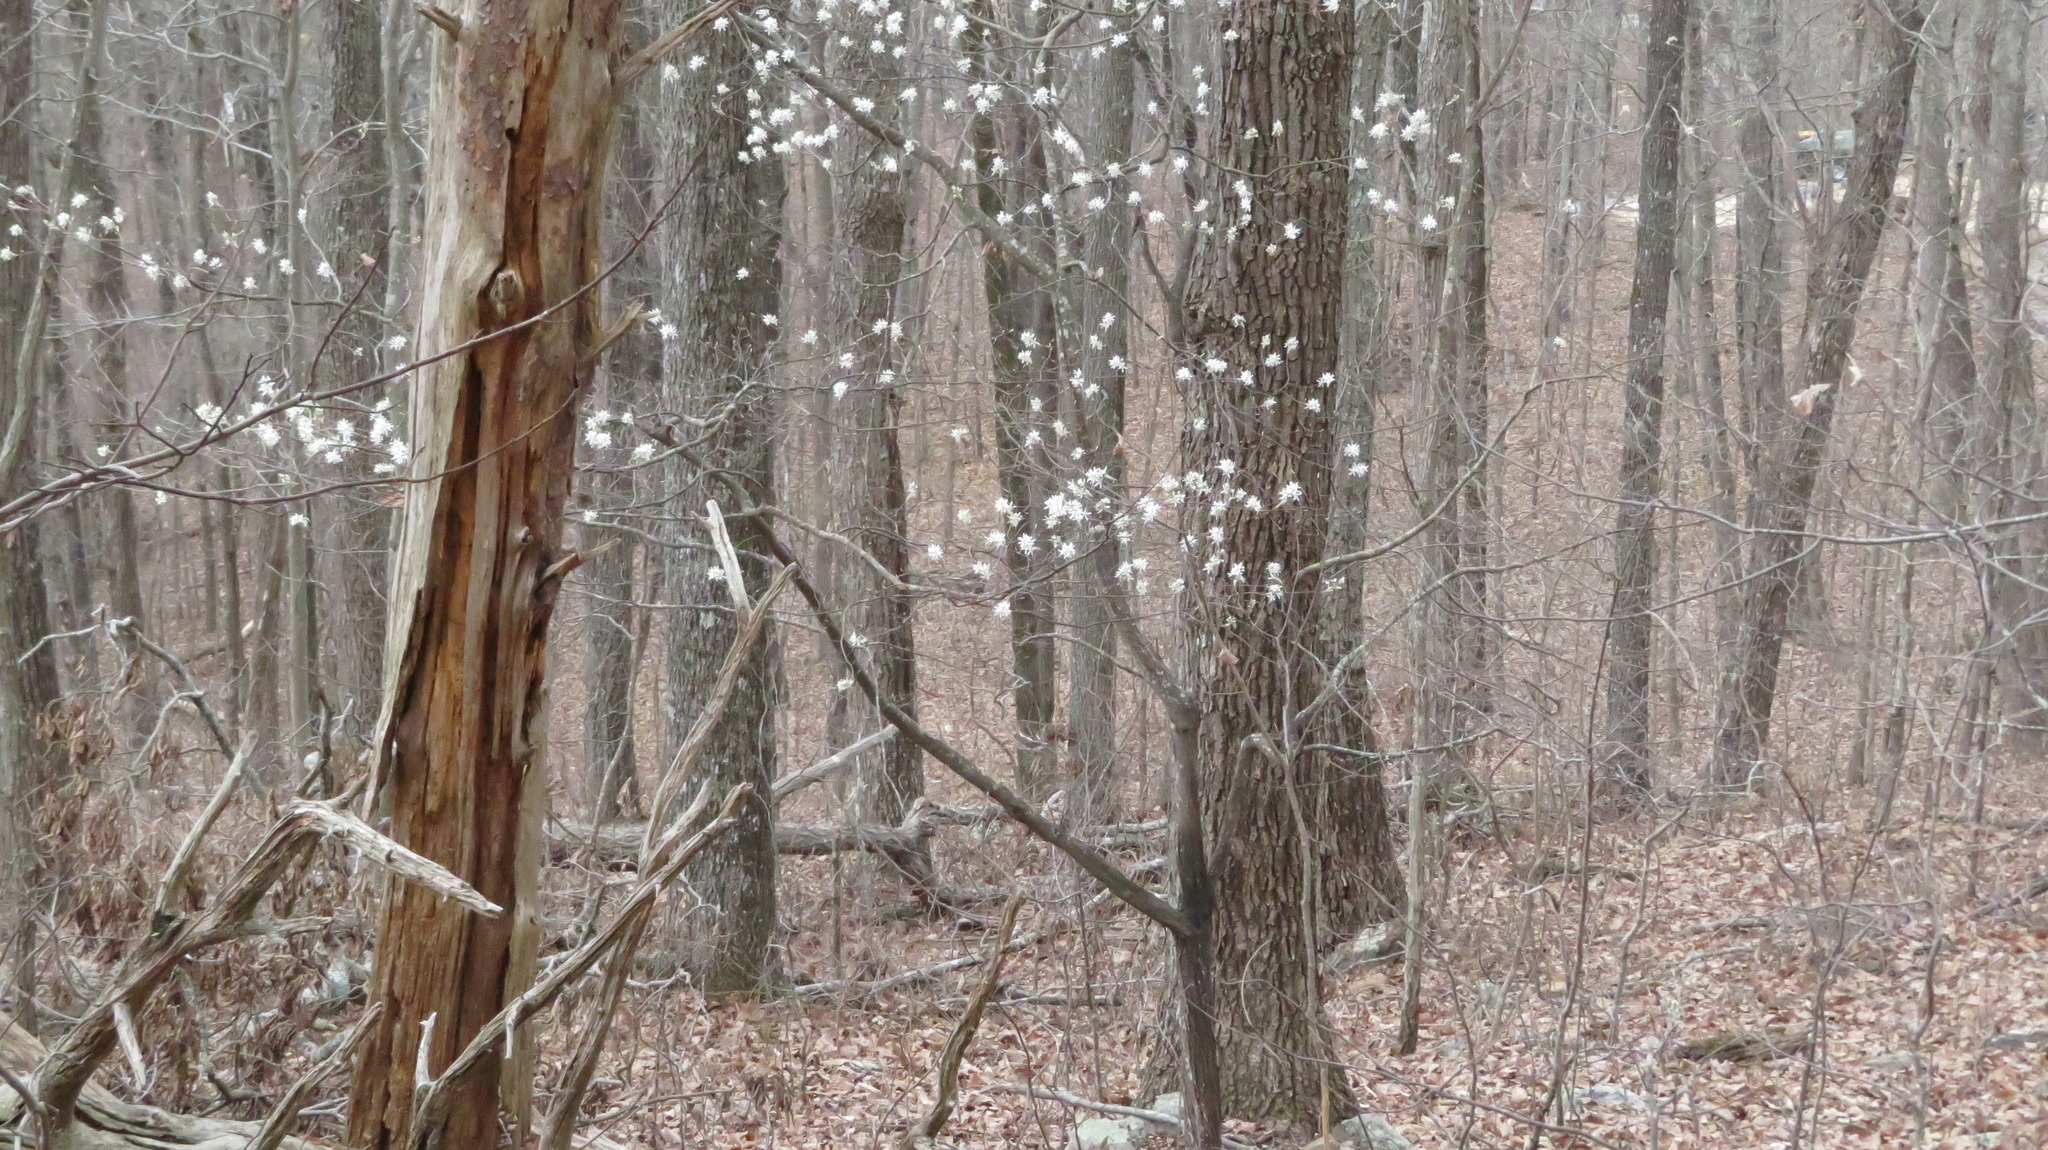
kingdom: Plantae
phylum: Tracheophyta
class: Magnoliopsida
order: Rosales
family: Rosaceae
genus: Amelanchier
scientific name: Amelanchier arborea
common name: Downy serviceberry
